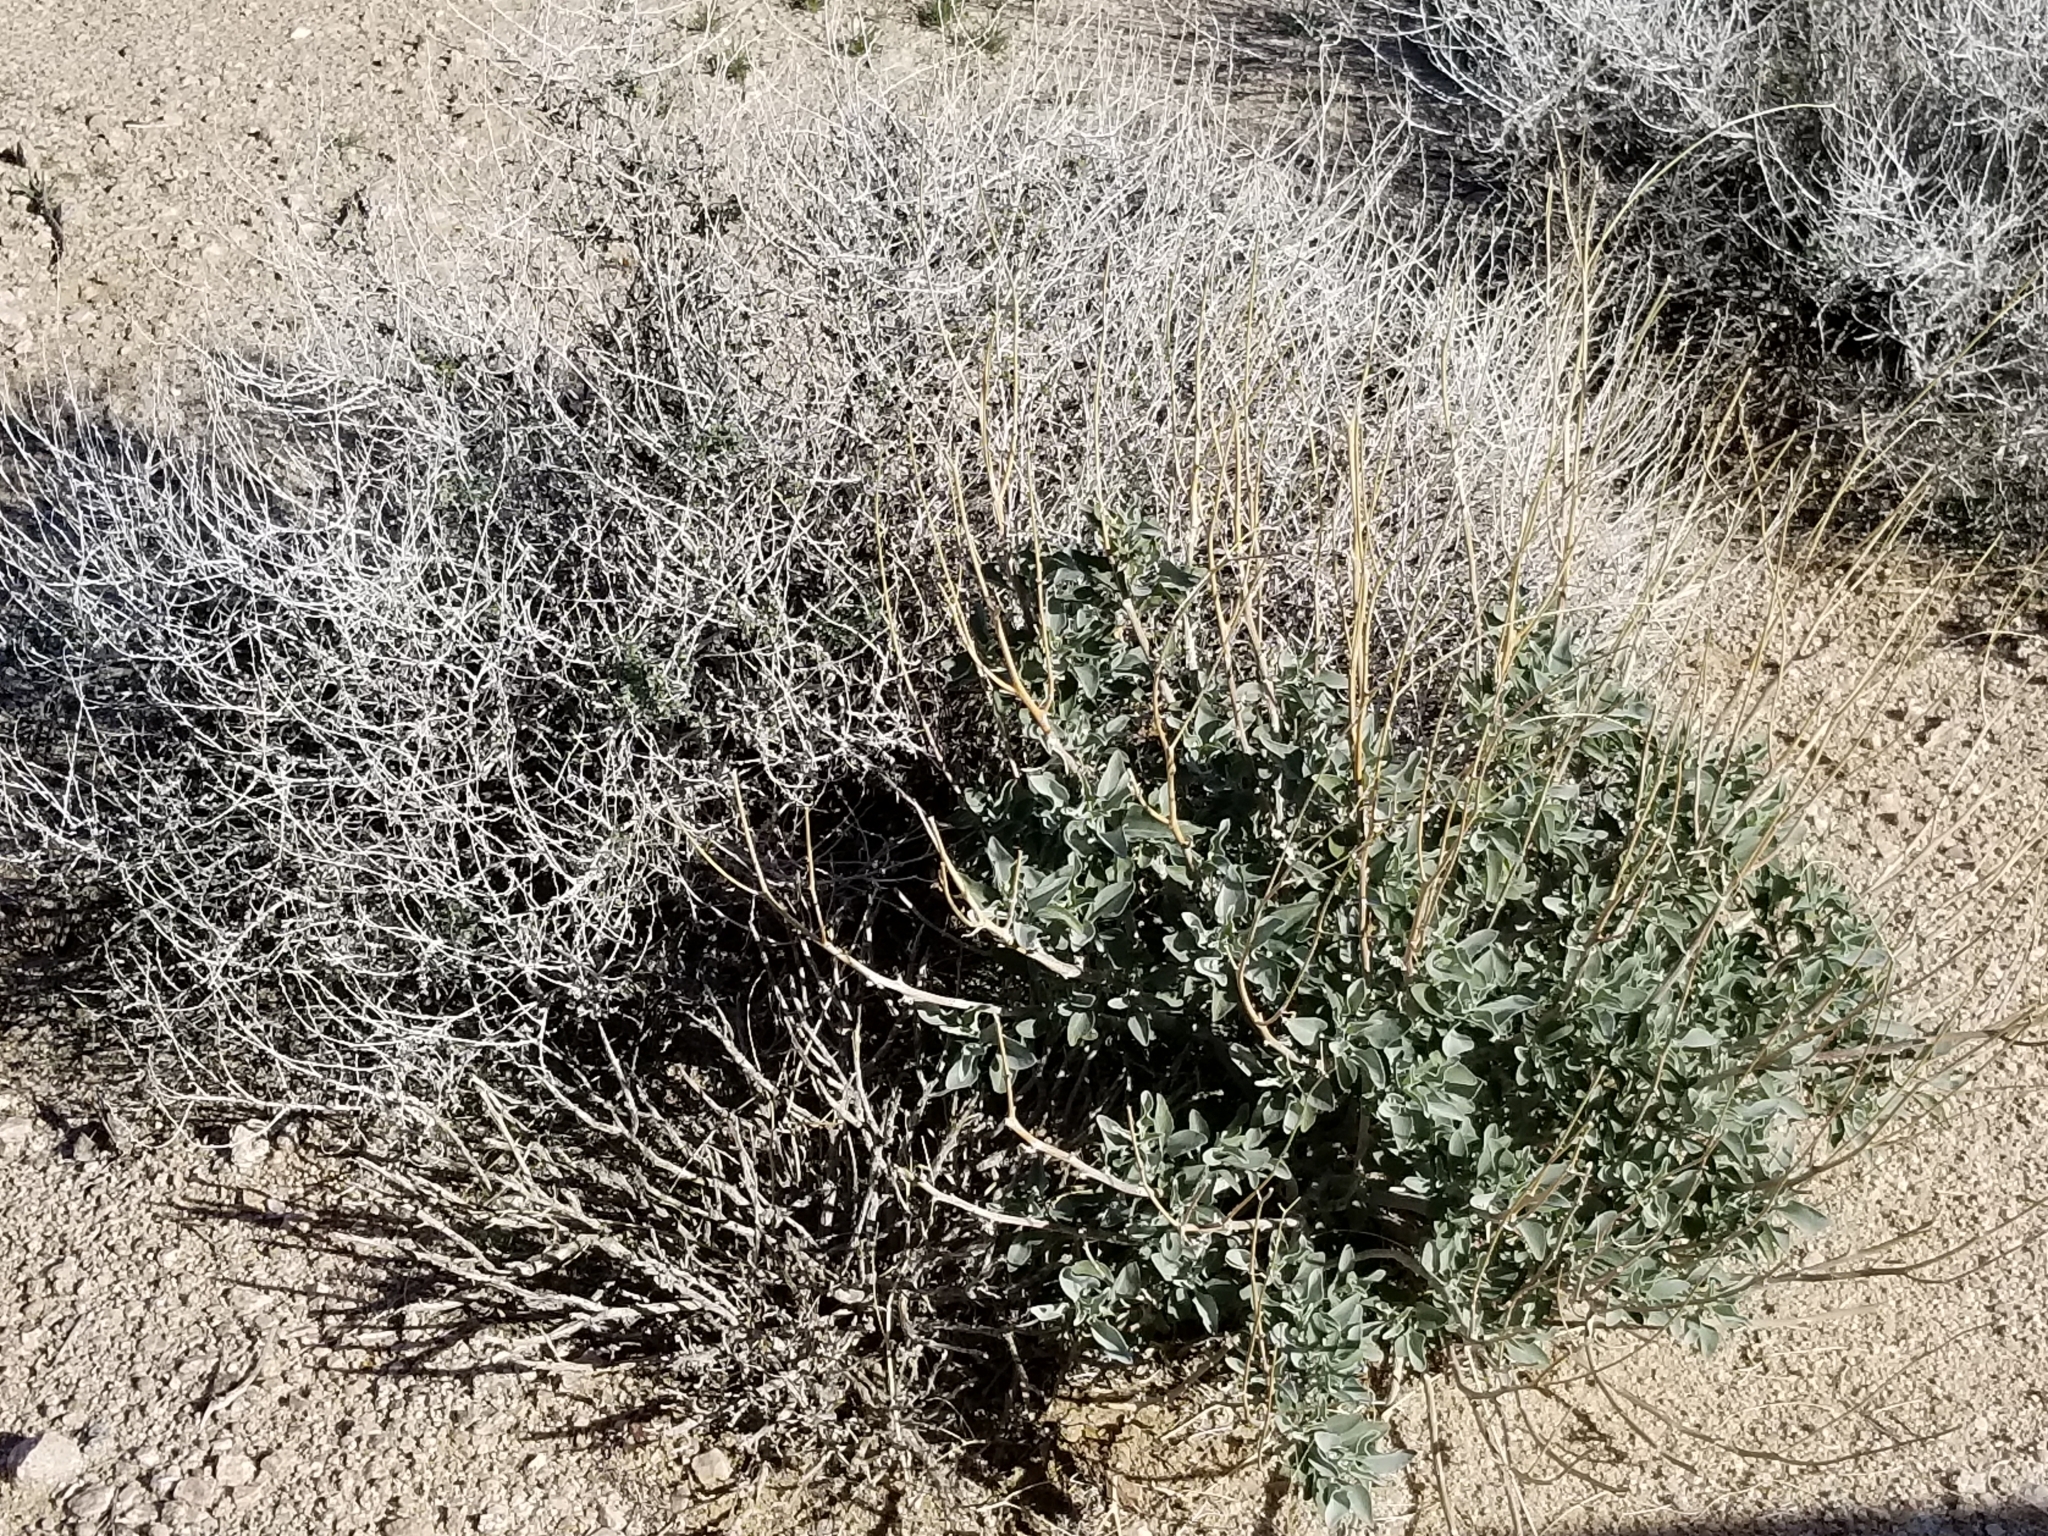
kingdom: Plantae
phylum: Tracheophyta
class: Magnoliopsida
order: Asterales
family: Asteraceae
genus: Encelia
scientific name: Encelia farinosa
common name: Brittlebush
